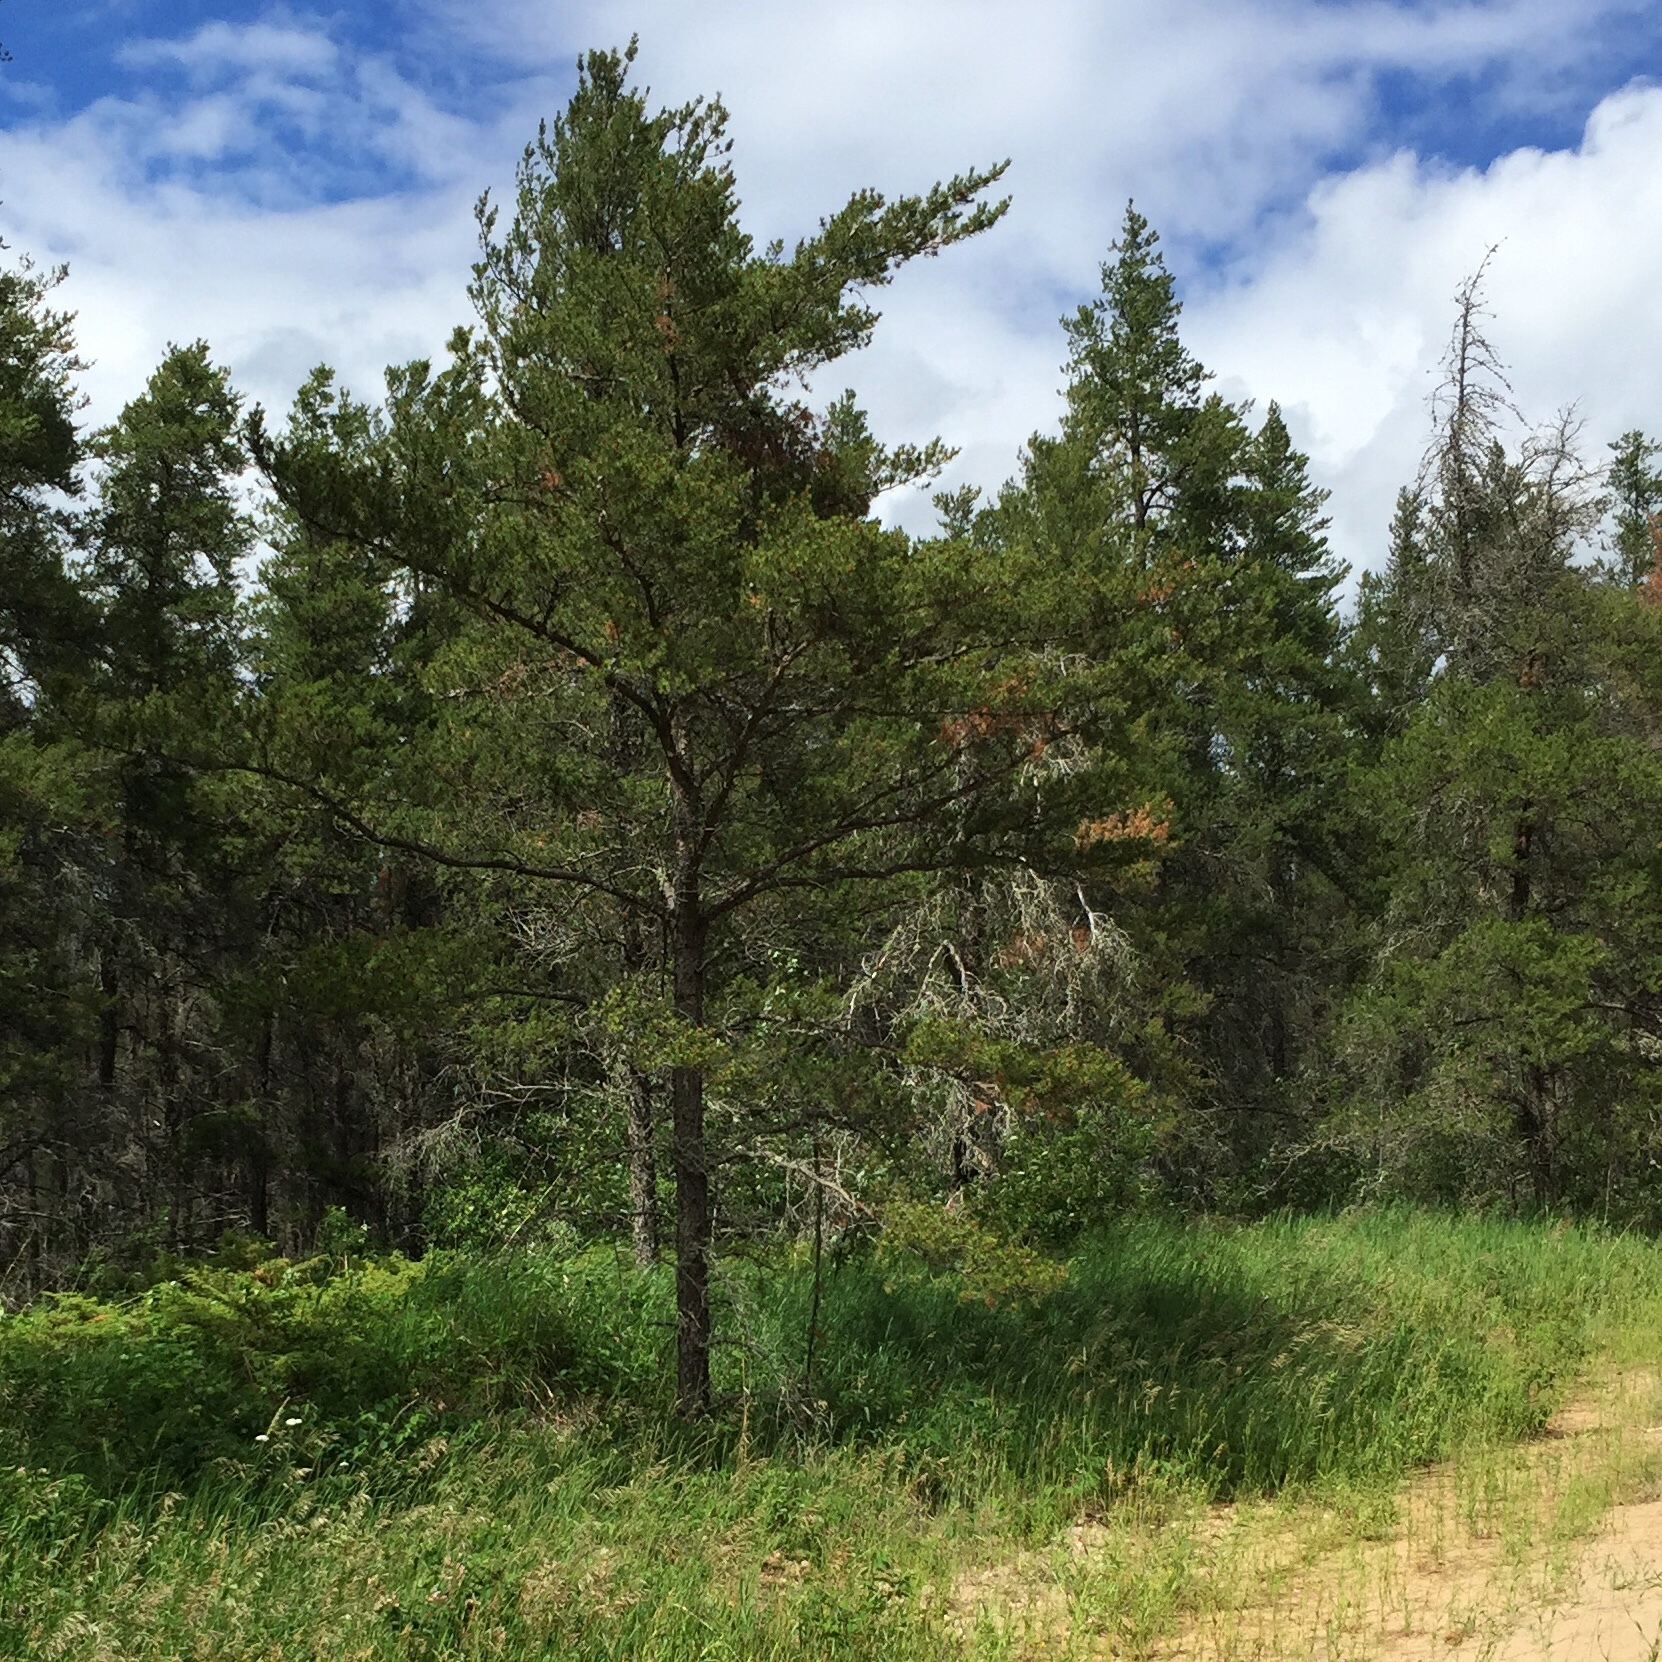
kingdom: Plantae
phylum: Tracheophyta
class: Pinopsida
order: Pinales
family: Pinaceae
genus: Pinus
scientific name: Pinus banksiana
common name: Jack pine
